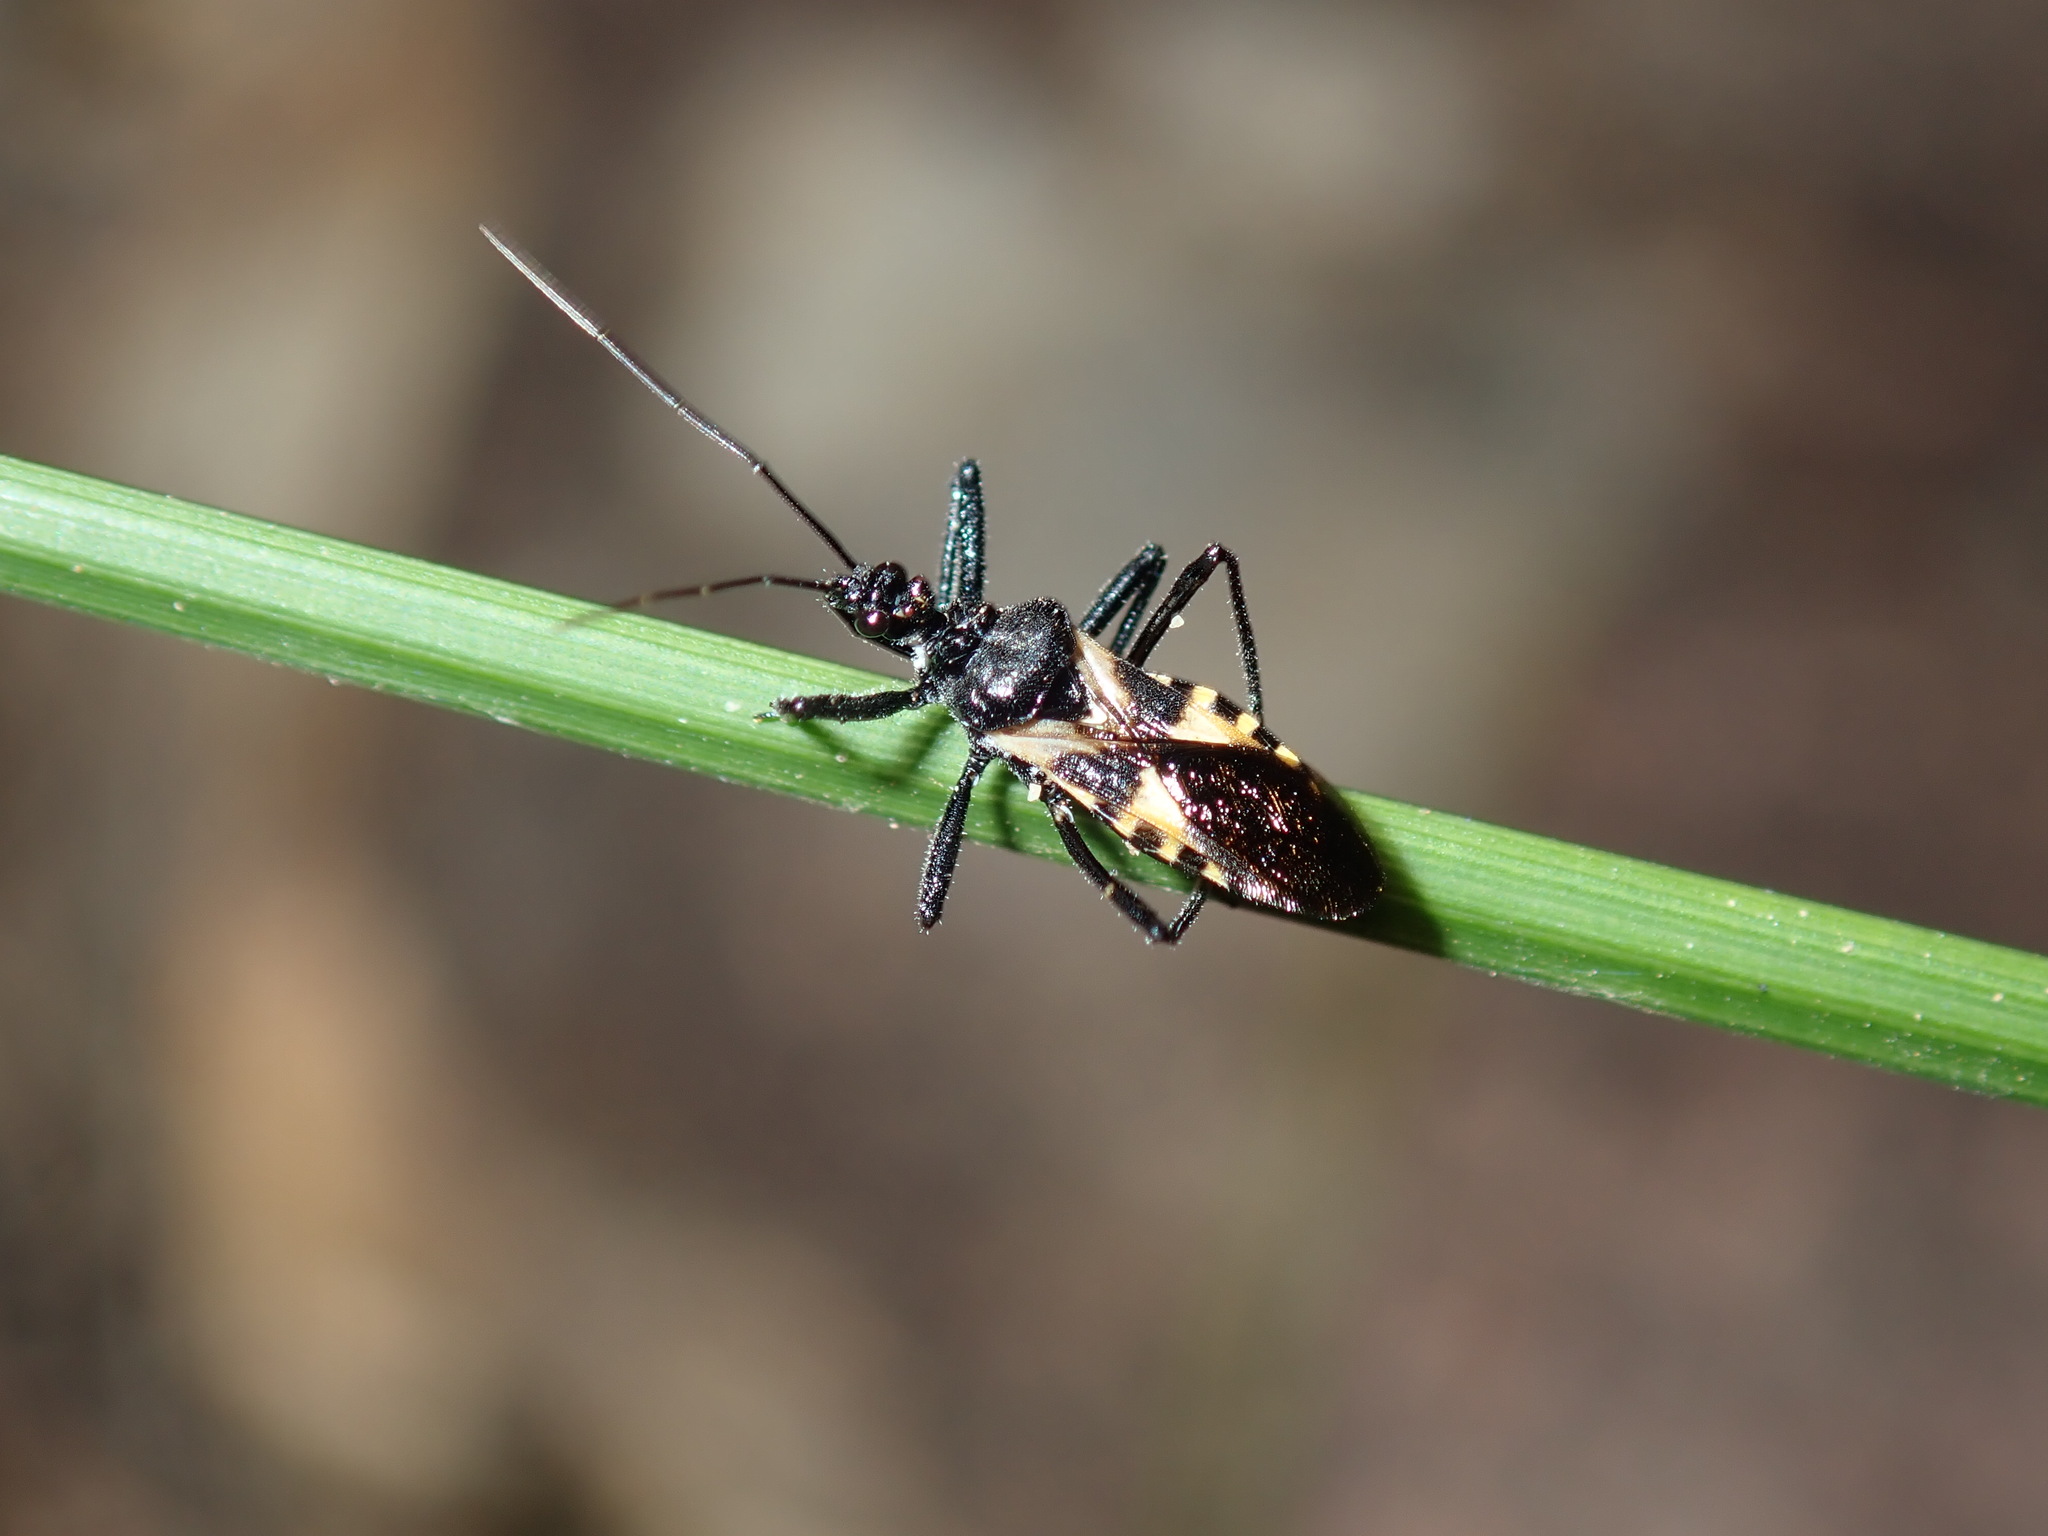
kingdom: Animalia
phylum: Arthropoda
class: Insecta
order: Hemiptera
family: Reduviidae
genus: Catasphactes
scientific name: Catasphactes coprias
